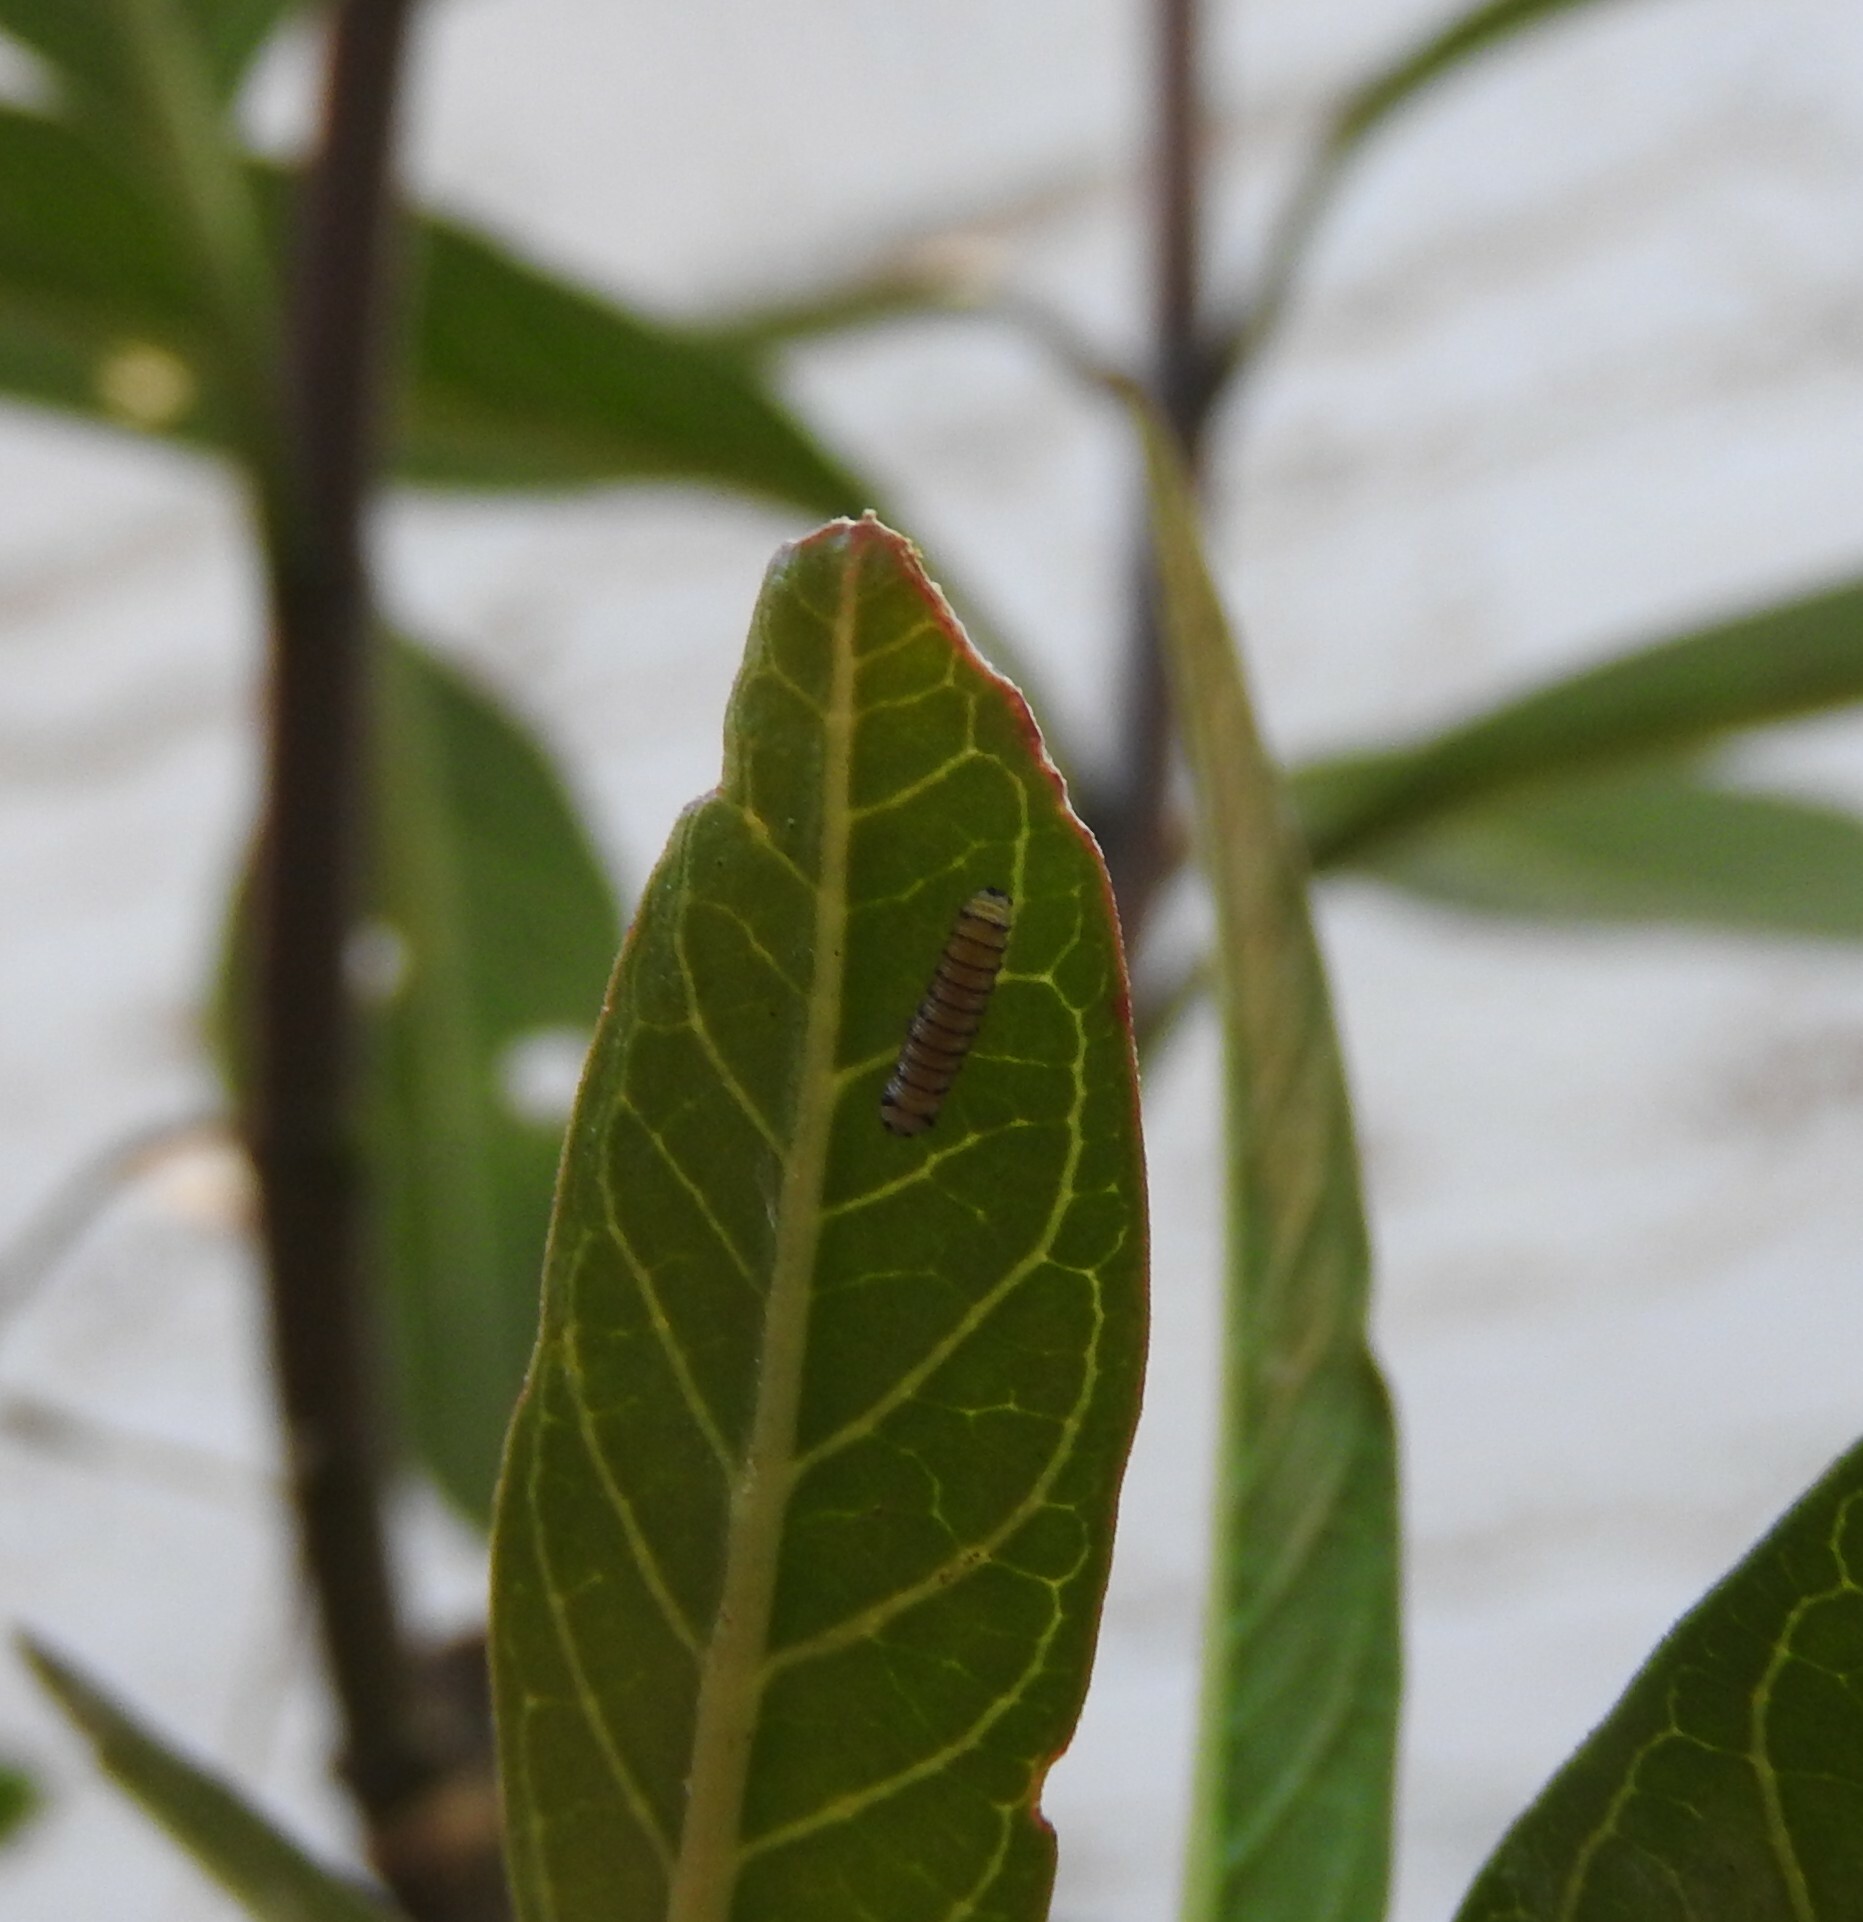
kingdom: Animalia
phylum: Arthropoda
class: Insecta
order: Lepidoptera
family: Nymphalidae
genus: Danaus
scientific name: Danaus plexippus
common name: Monarch
